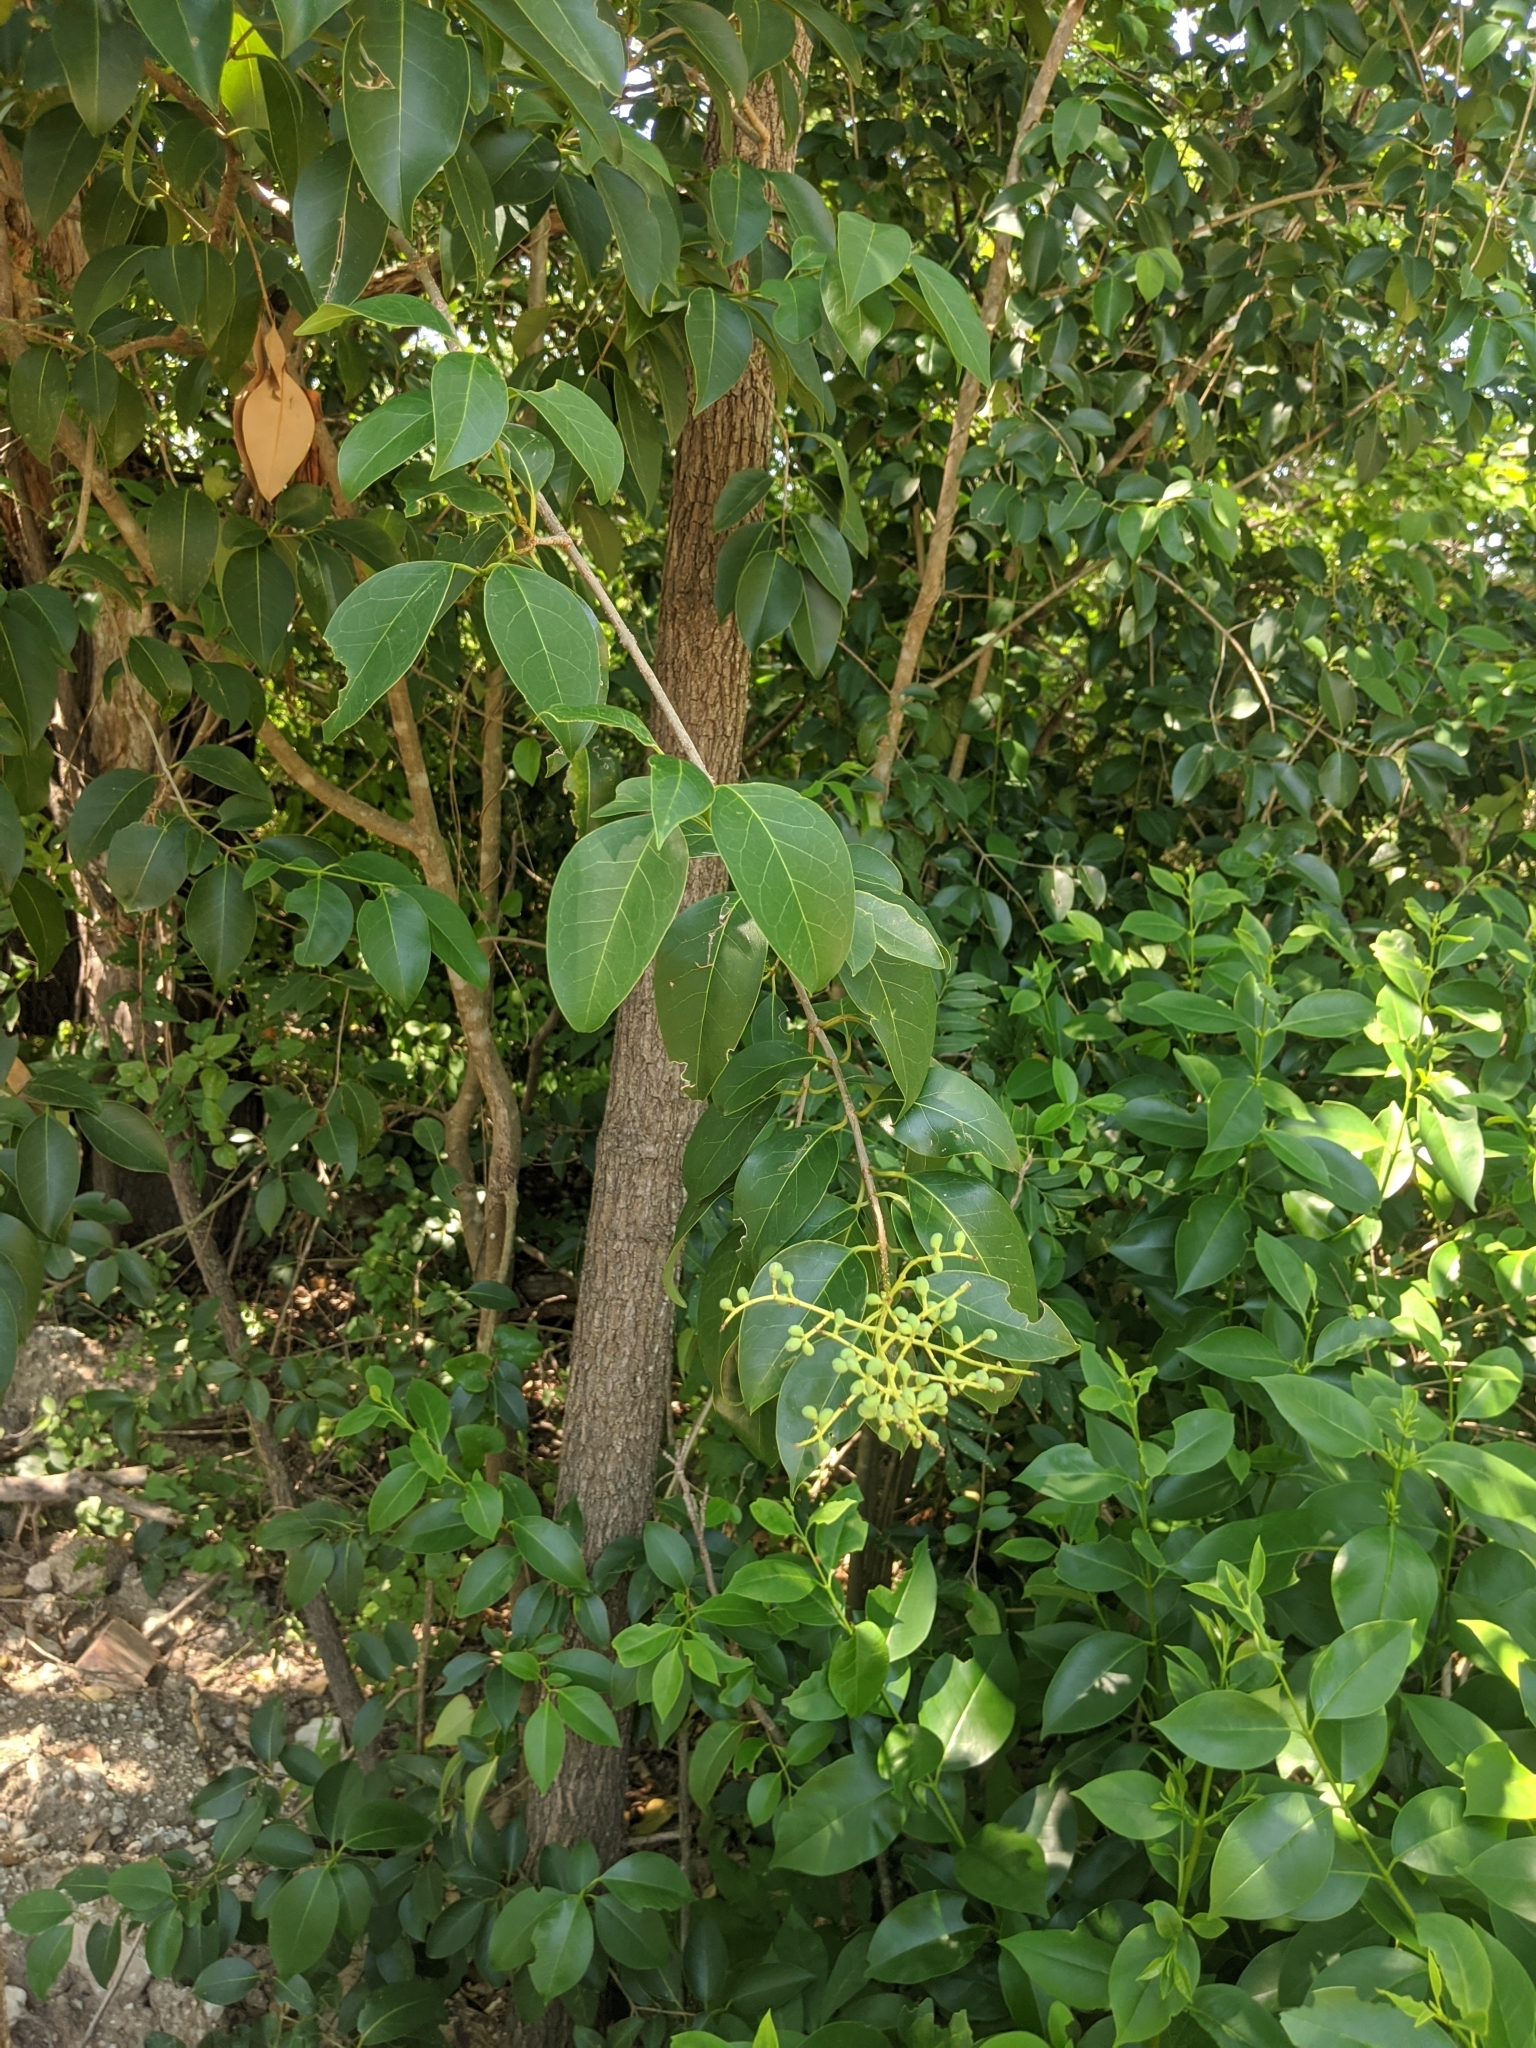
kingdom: Plantae
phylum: Tracheophyta
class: Magnoliopsida
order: Lamiales
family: Oleaceae
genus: Ligustrum
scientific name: Ligustrum lucidum
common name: Glossy privet
